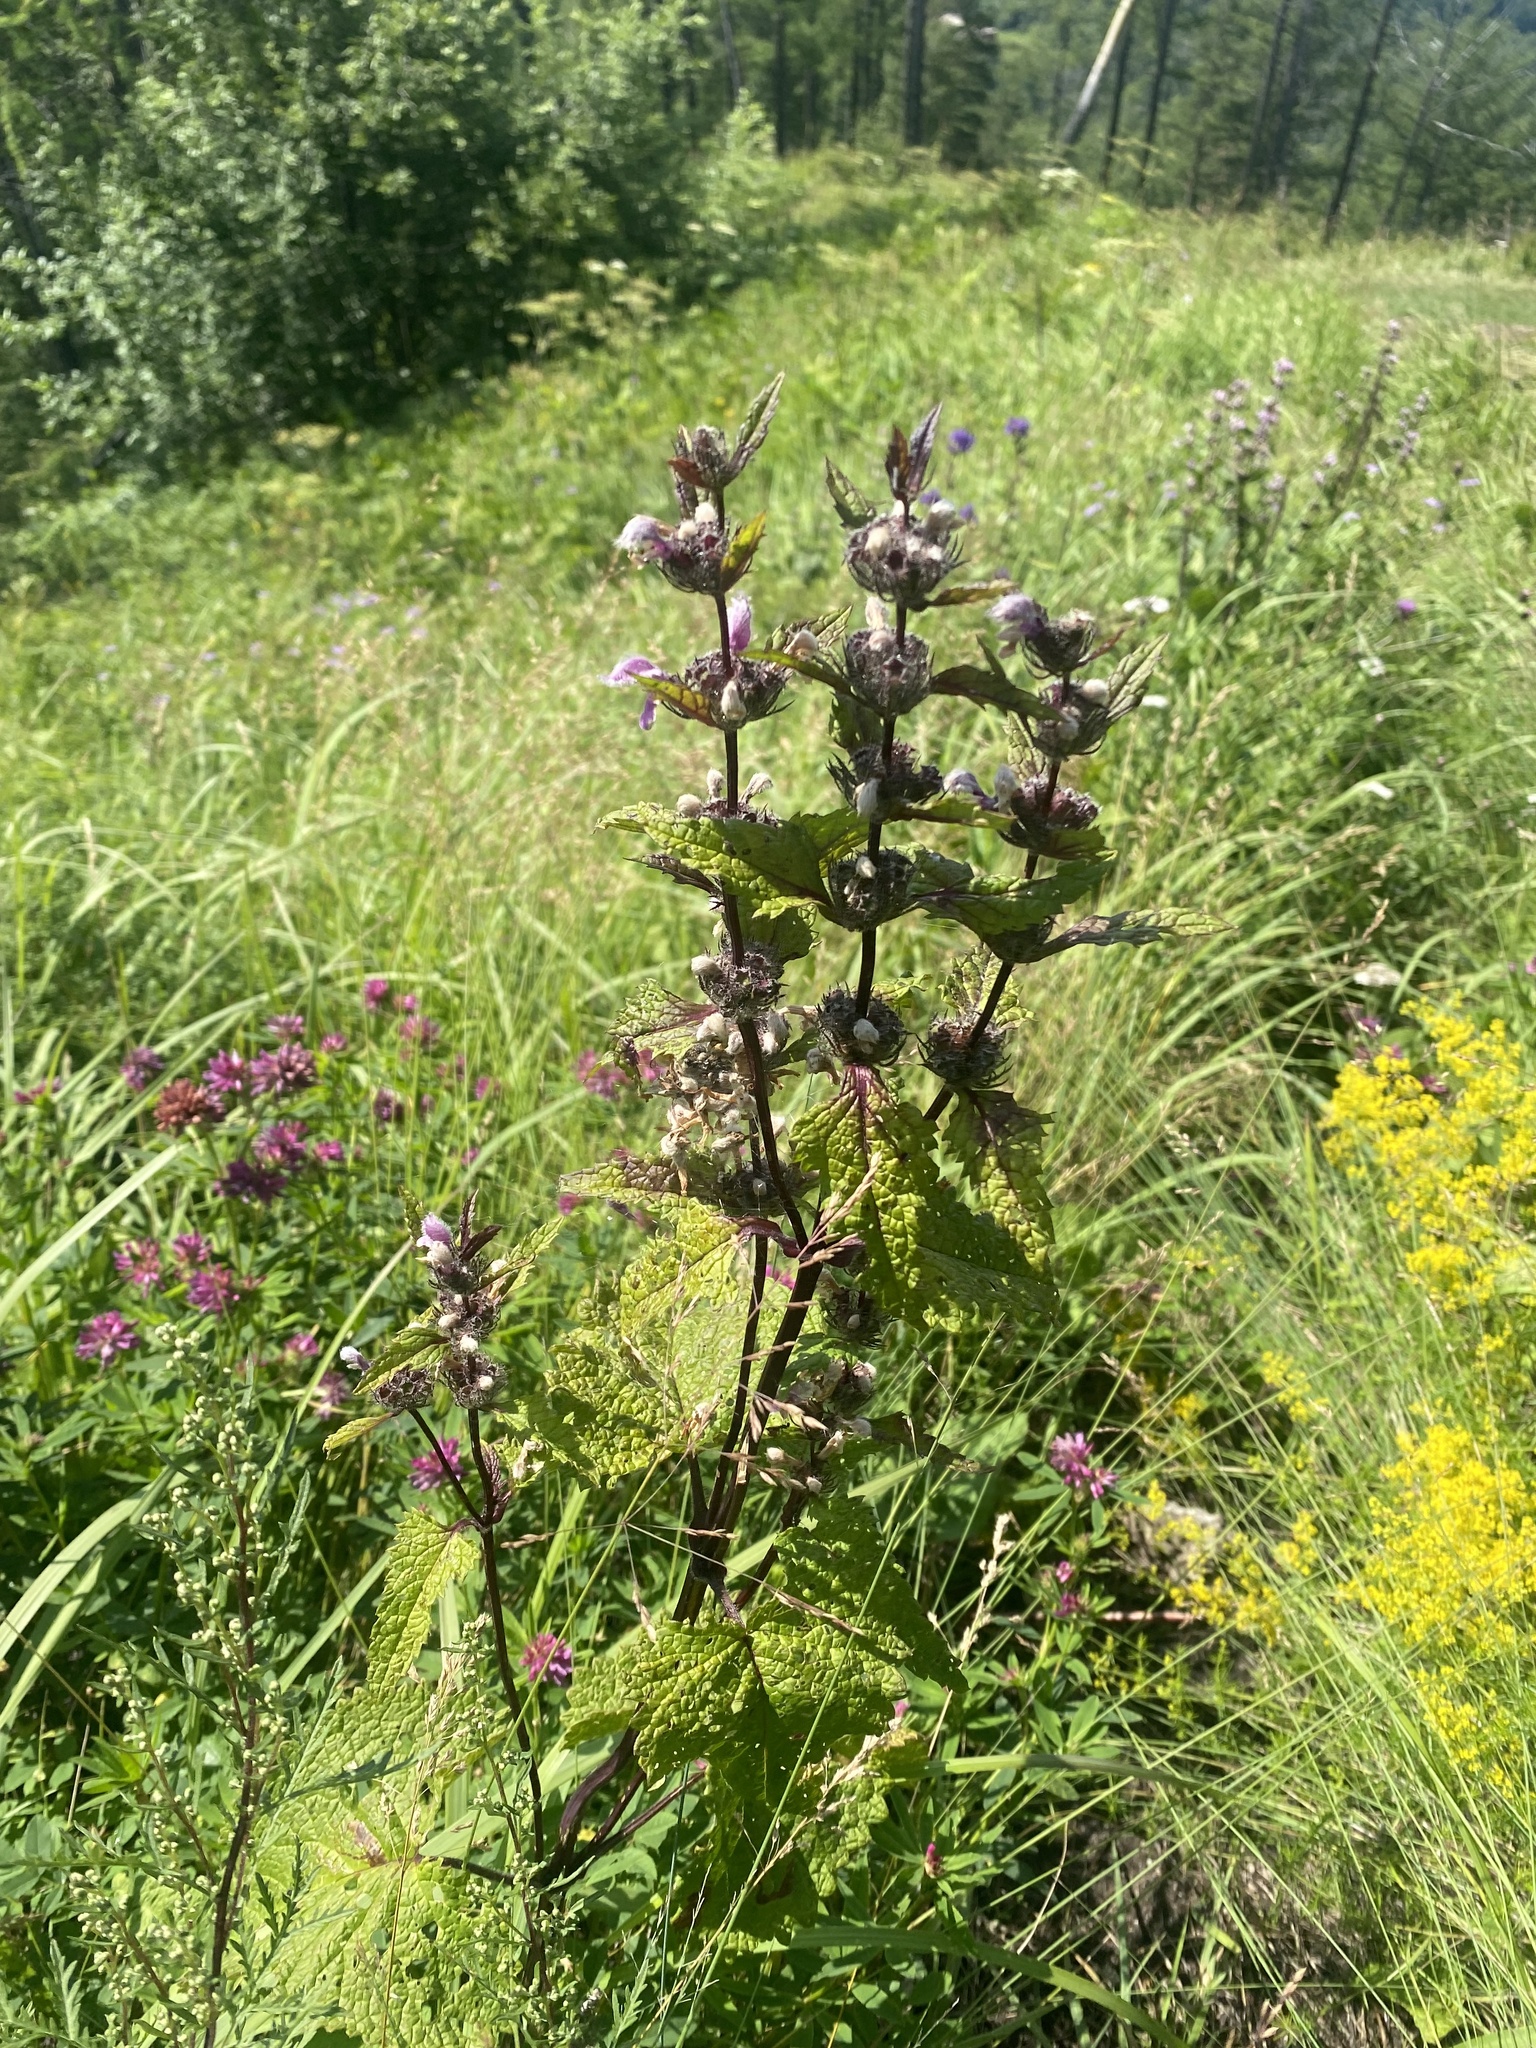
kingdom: Plantae
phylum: Tracheophyta
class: Magnoliopsida
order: Lamiales
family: Lamiaceae
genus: Phlomoides
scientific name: Phlomoides tuberosa
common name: Tuberous jerusalem sage
